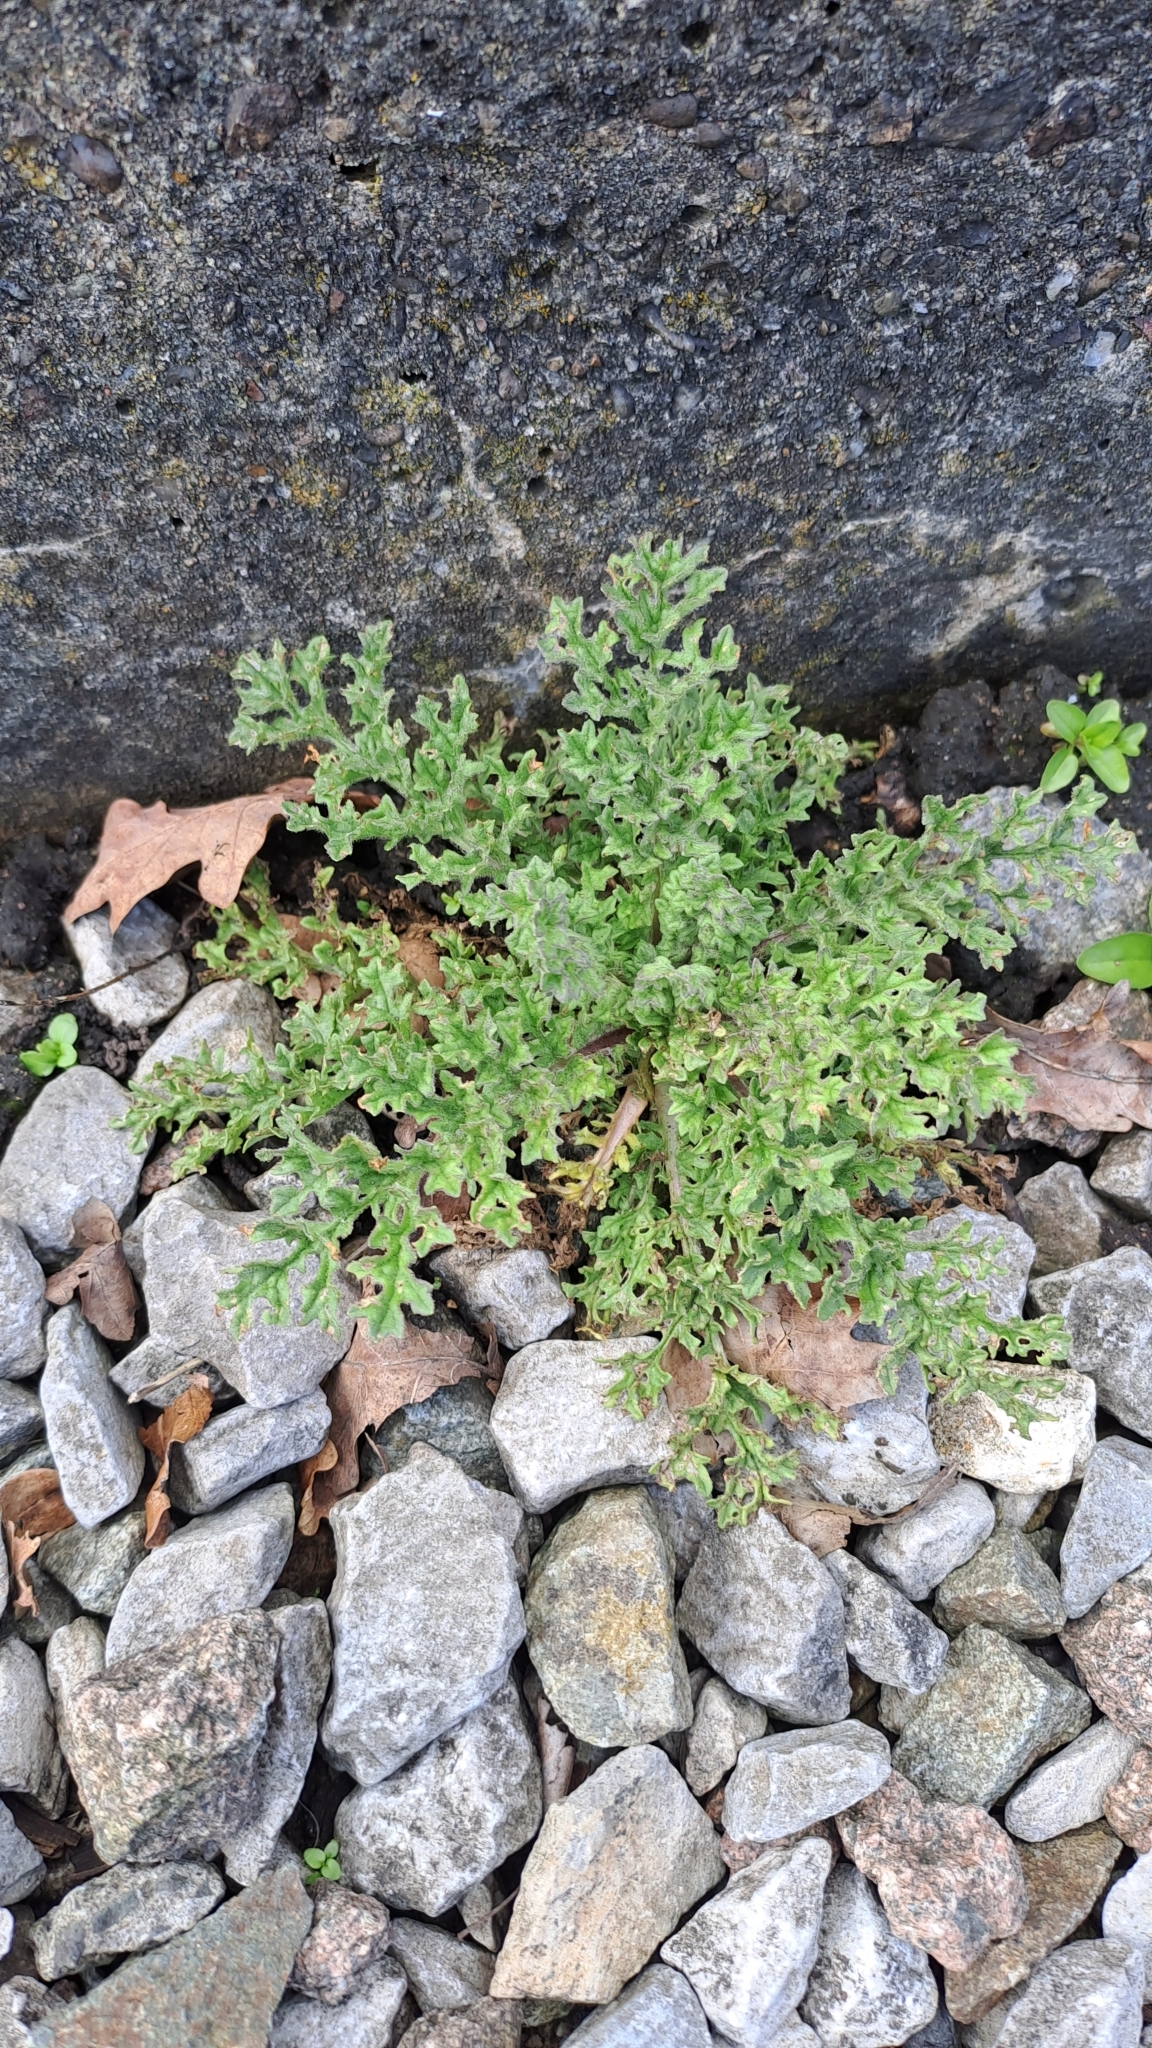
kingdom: Plantae
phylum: Tracheophyta
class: Magnoliopsida
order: Asterales
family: Asteraceae
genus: Jacobaea
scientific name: Jacobaea vulgaris
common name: Stinking willie
